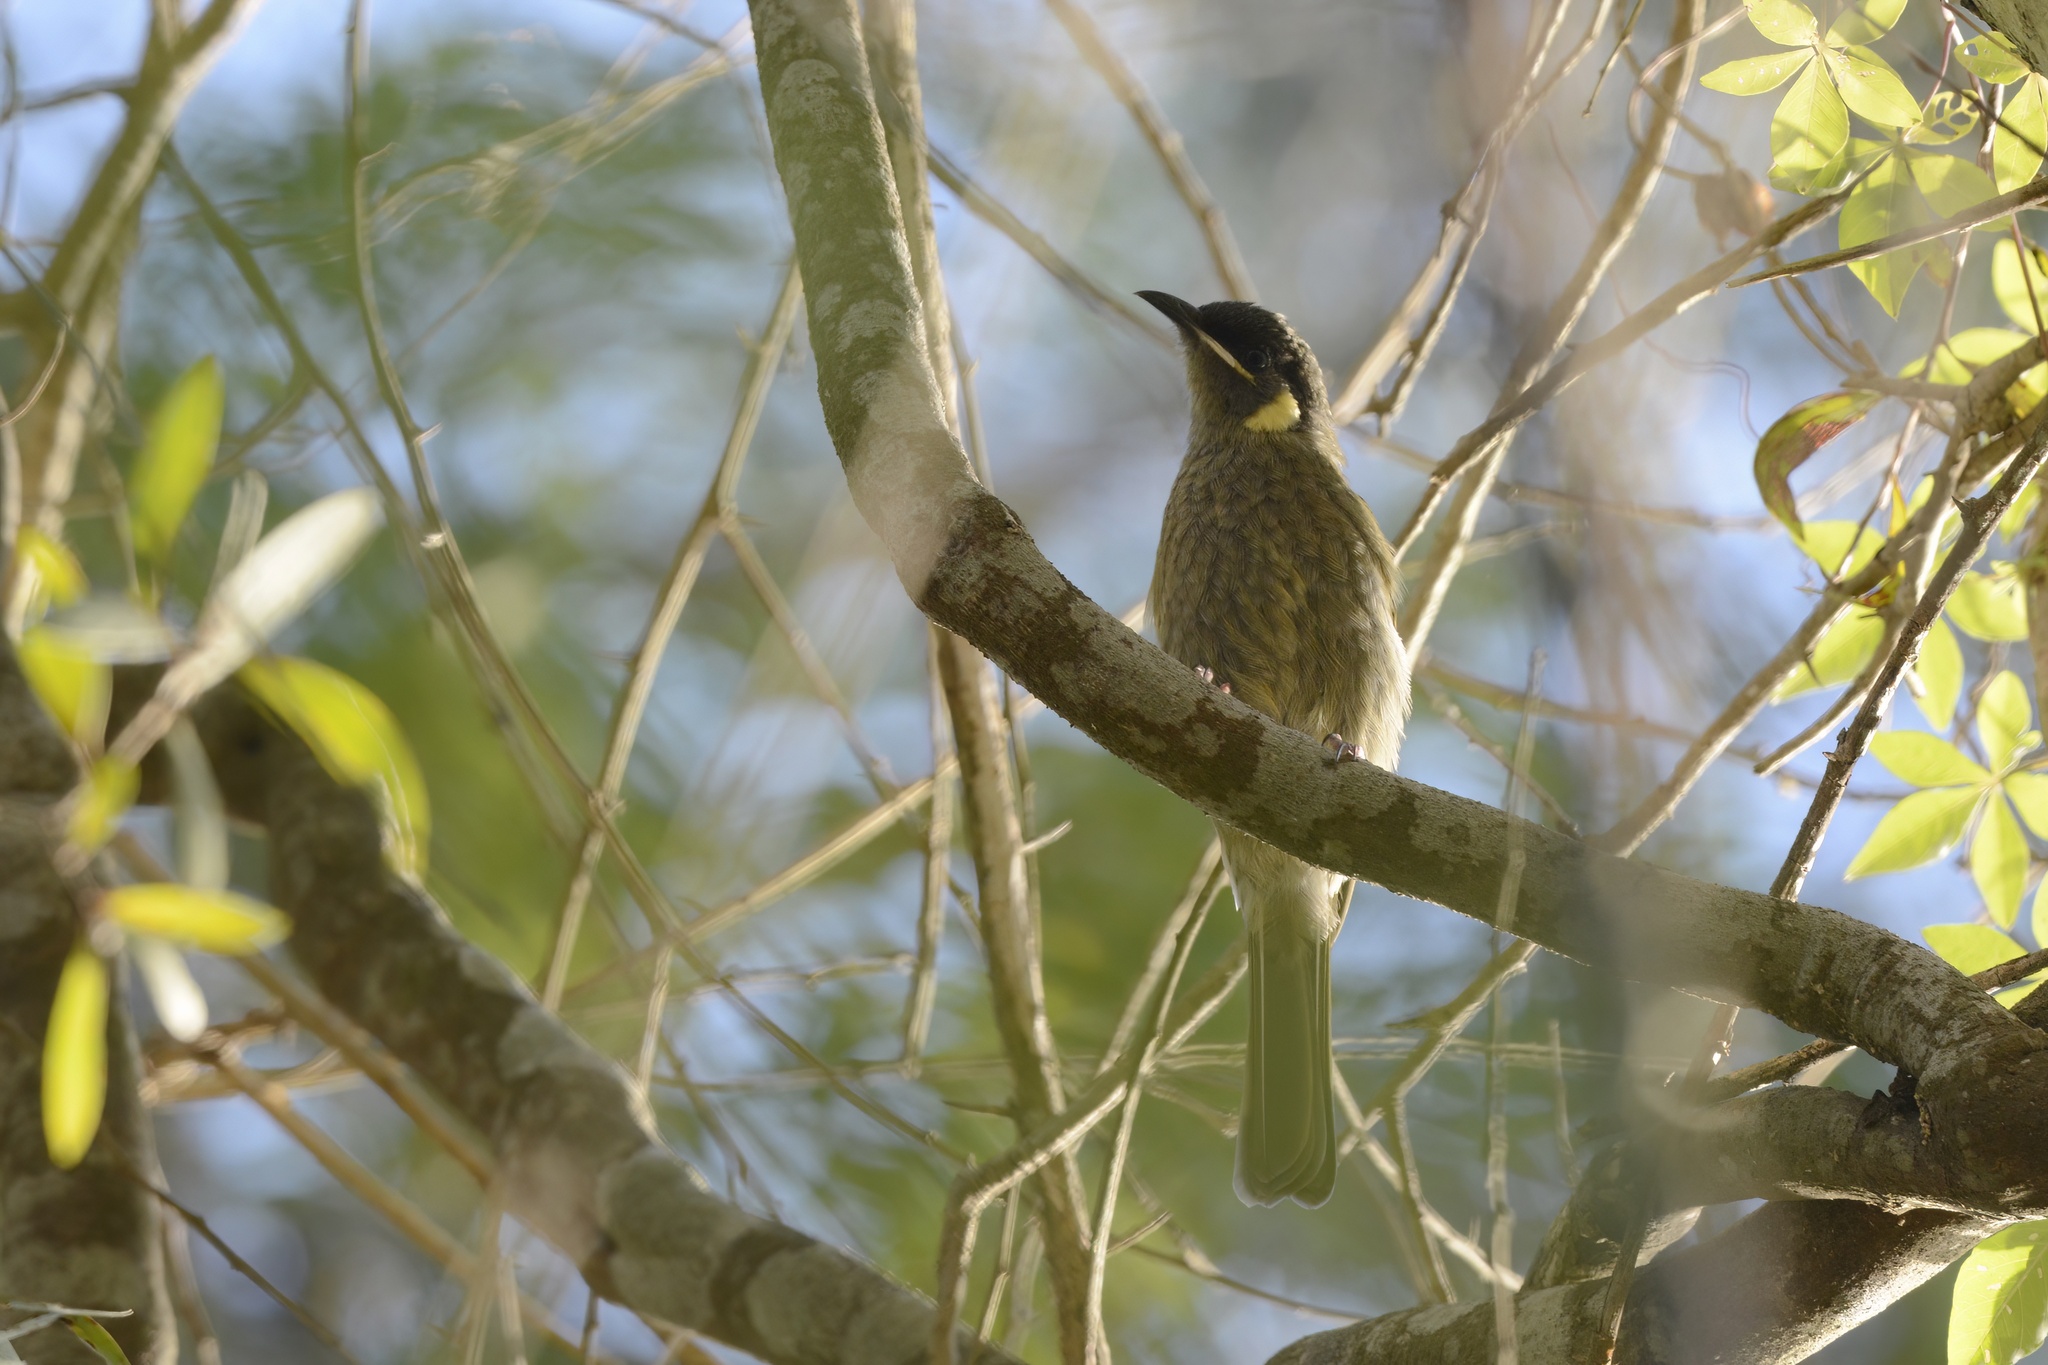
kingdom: Animalia
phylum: Chordata
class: Aves
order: Passeriformes
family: Meliphagidae
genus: Meliphaga
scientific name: Meliphaga lewinii
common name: Lewin's honeyeater
